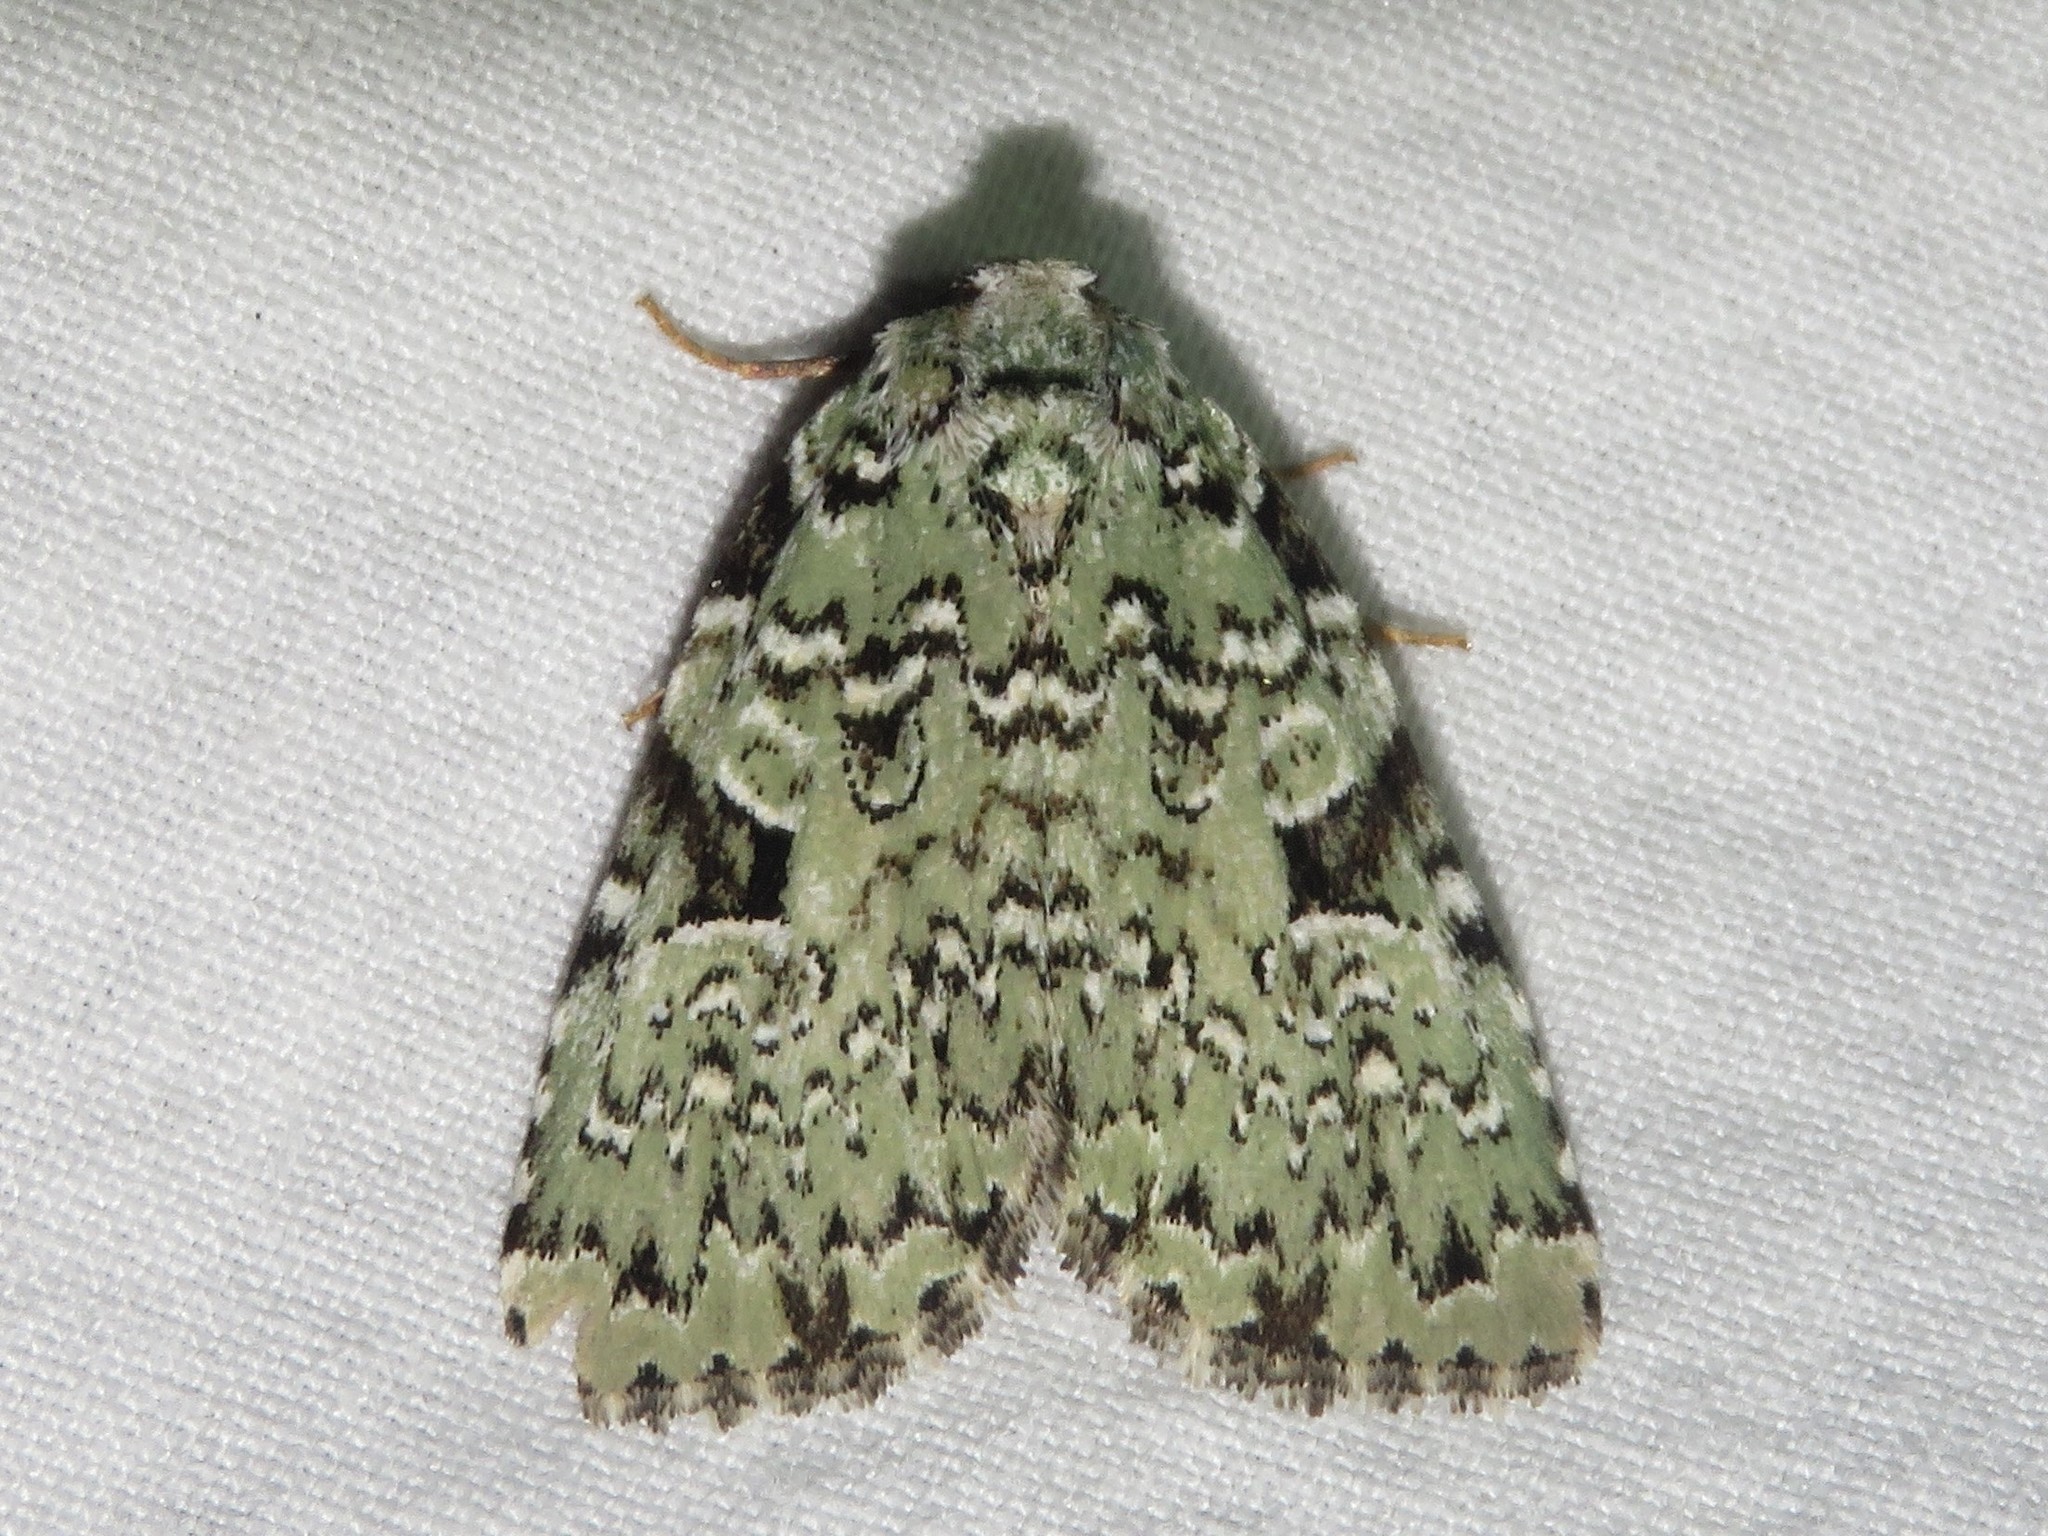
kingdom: Animalia
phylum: Arthropoda
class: Insecta
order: Lepidoptera
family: Noctuidae
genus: Leuconycta
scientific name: Leuconycta diphteroides
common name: Green leuconycta moth
